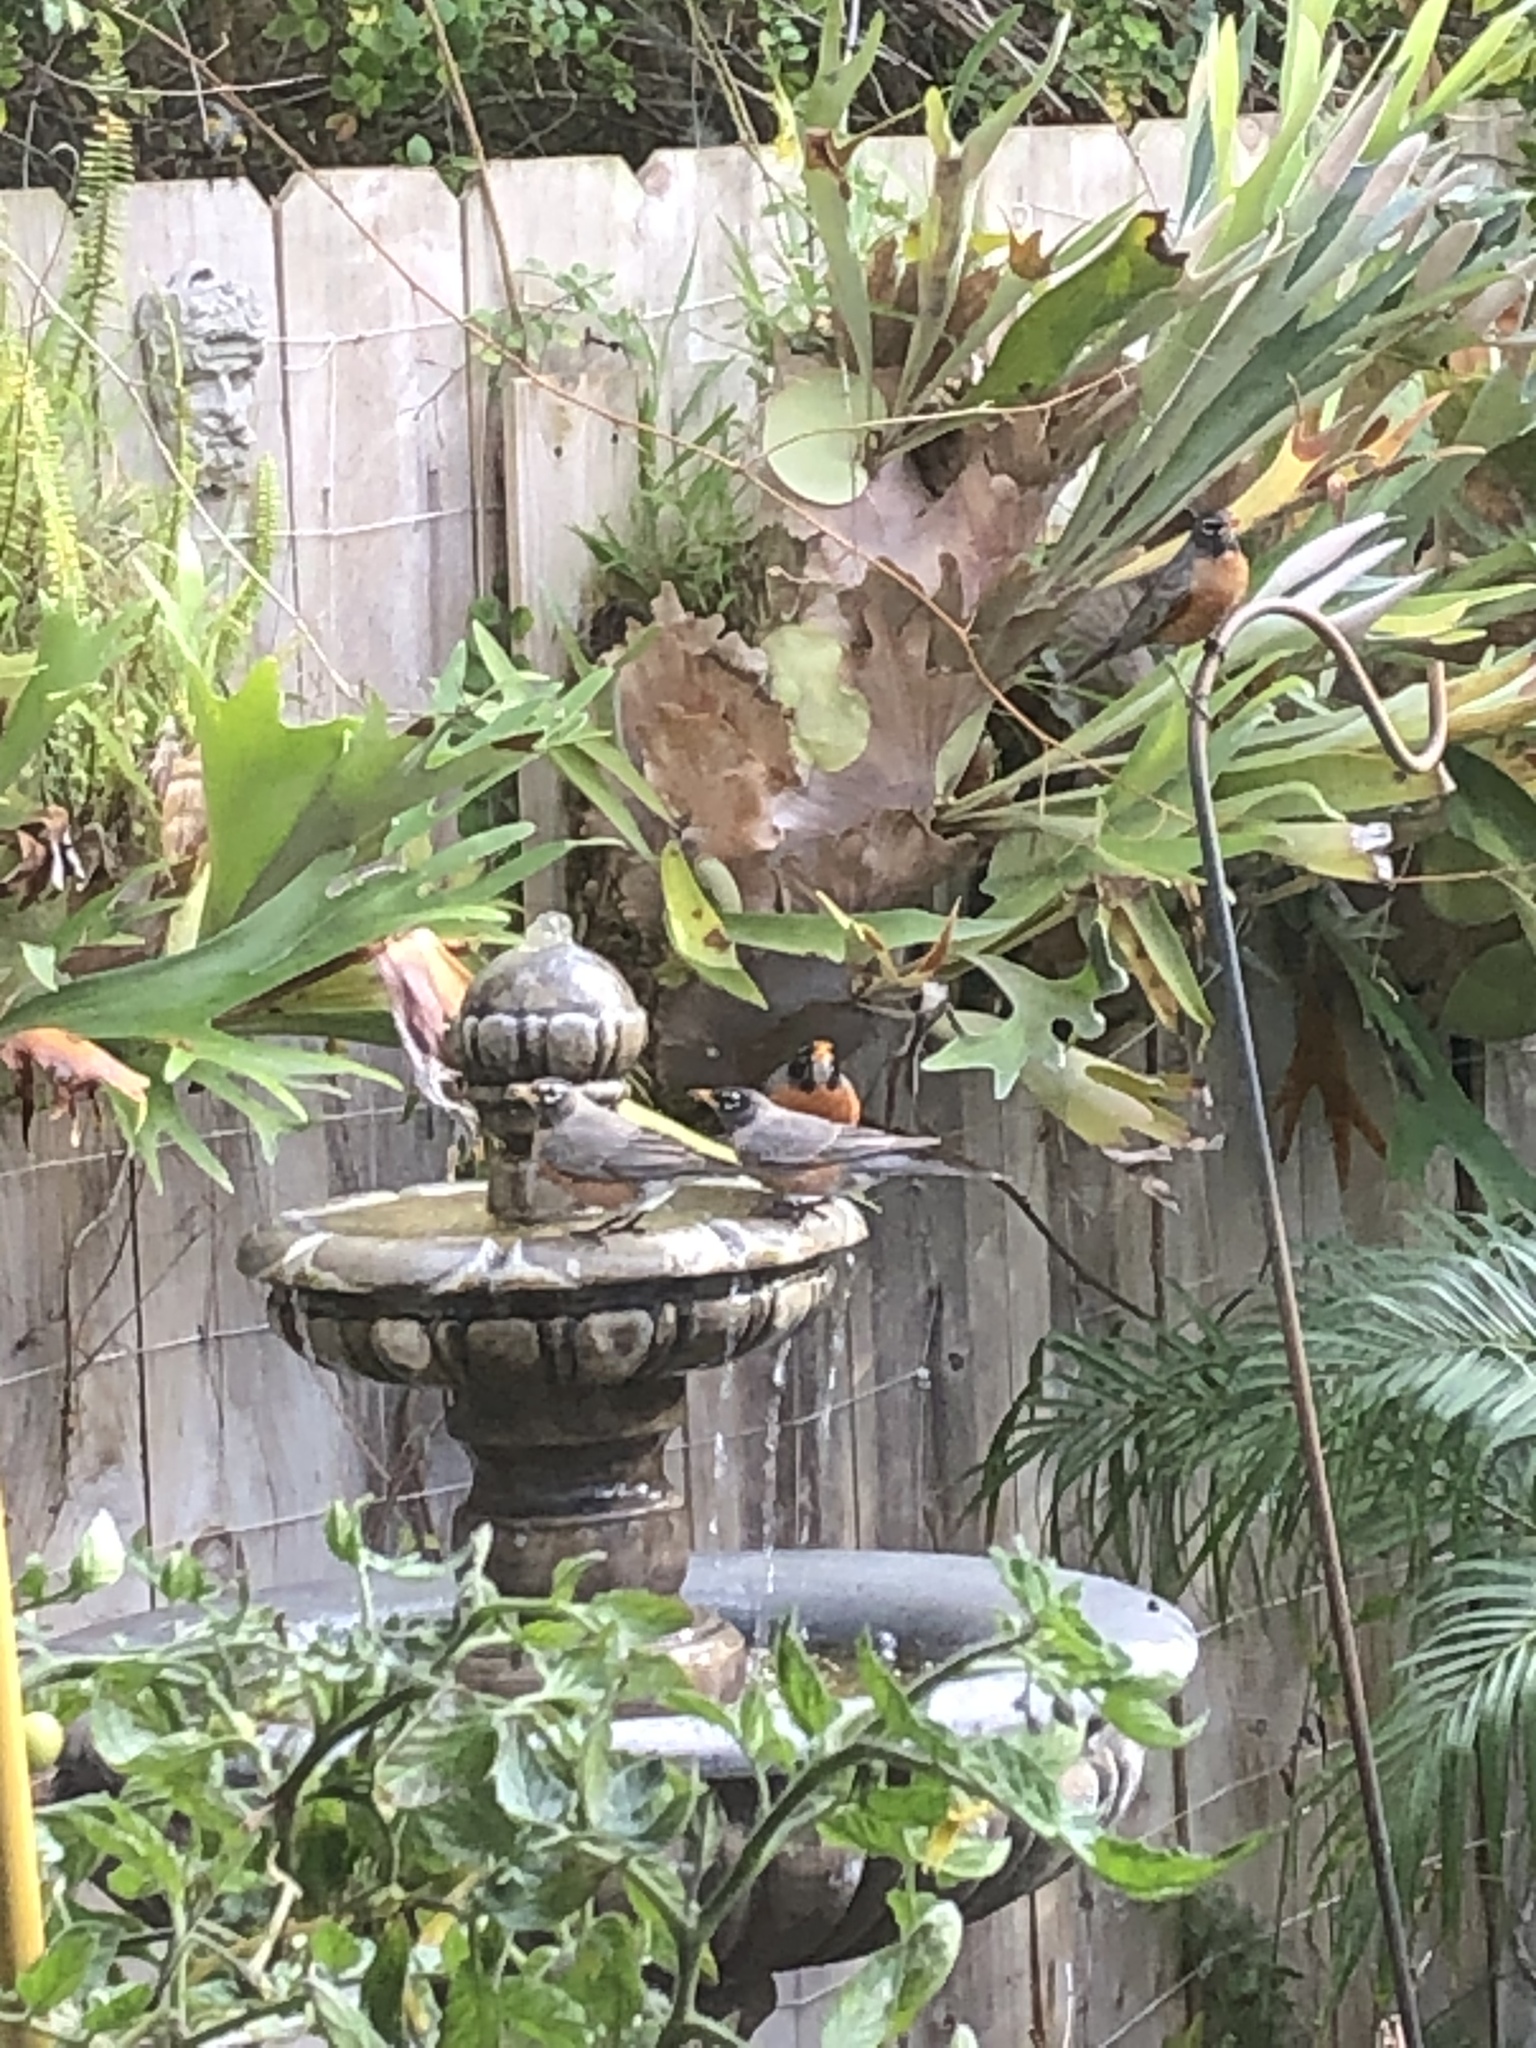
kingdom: Animalia
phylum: Chordata
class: Aves
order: Passeriformes
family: Turdidae
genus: Turdus
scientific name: Turdus migratorius
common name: American robin
